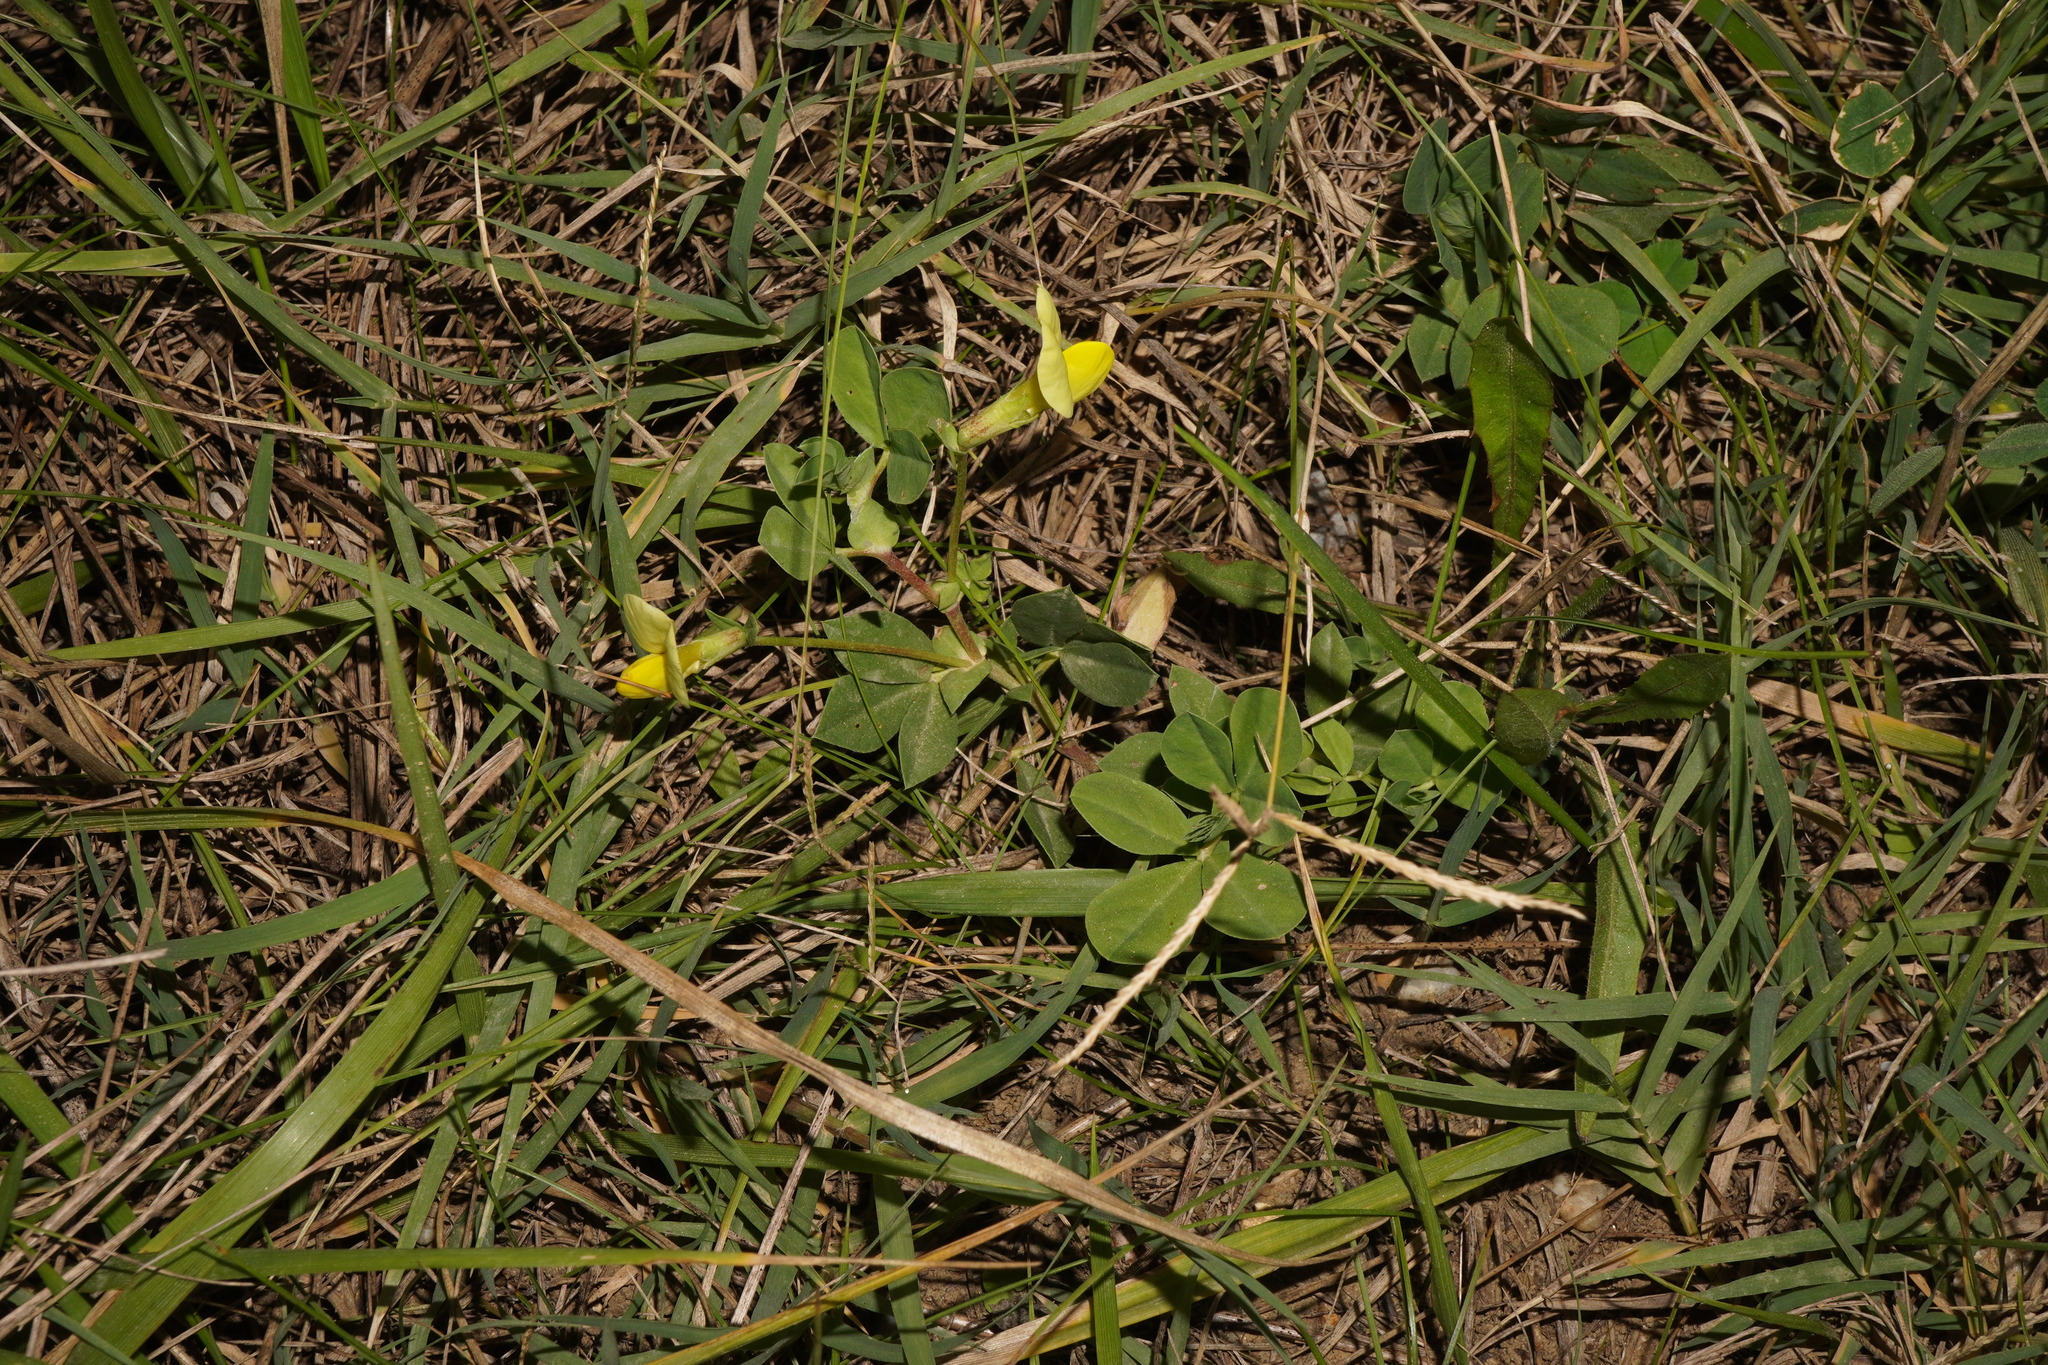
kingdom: Plantae
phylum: Tracheophyta
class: Magnoliopsida
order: Fabales
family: Fabaceae
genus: Lotus
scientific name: Lotus maritimus
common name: Dragon's-teeth
